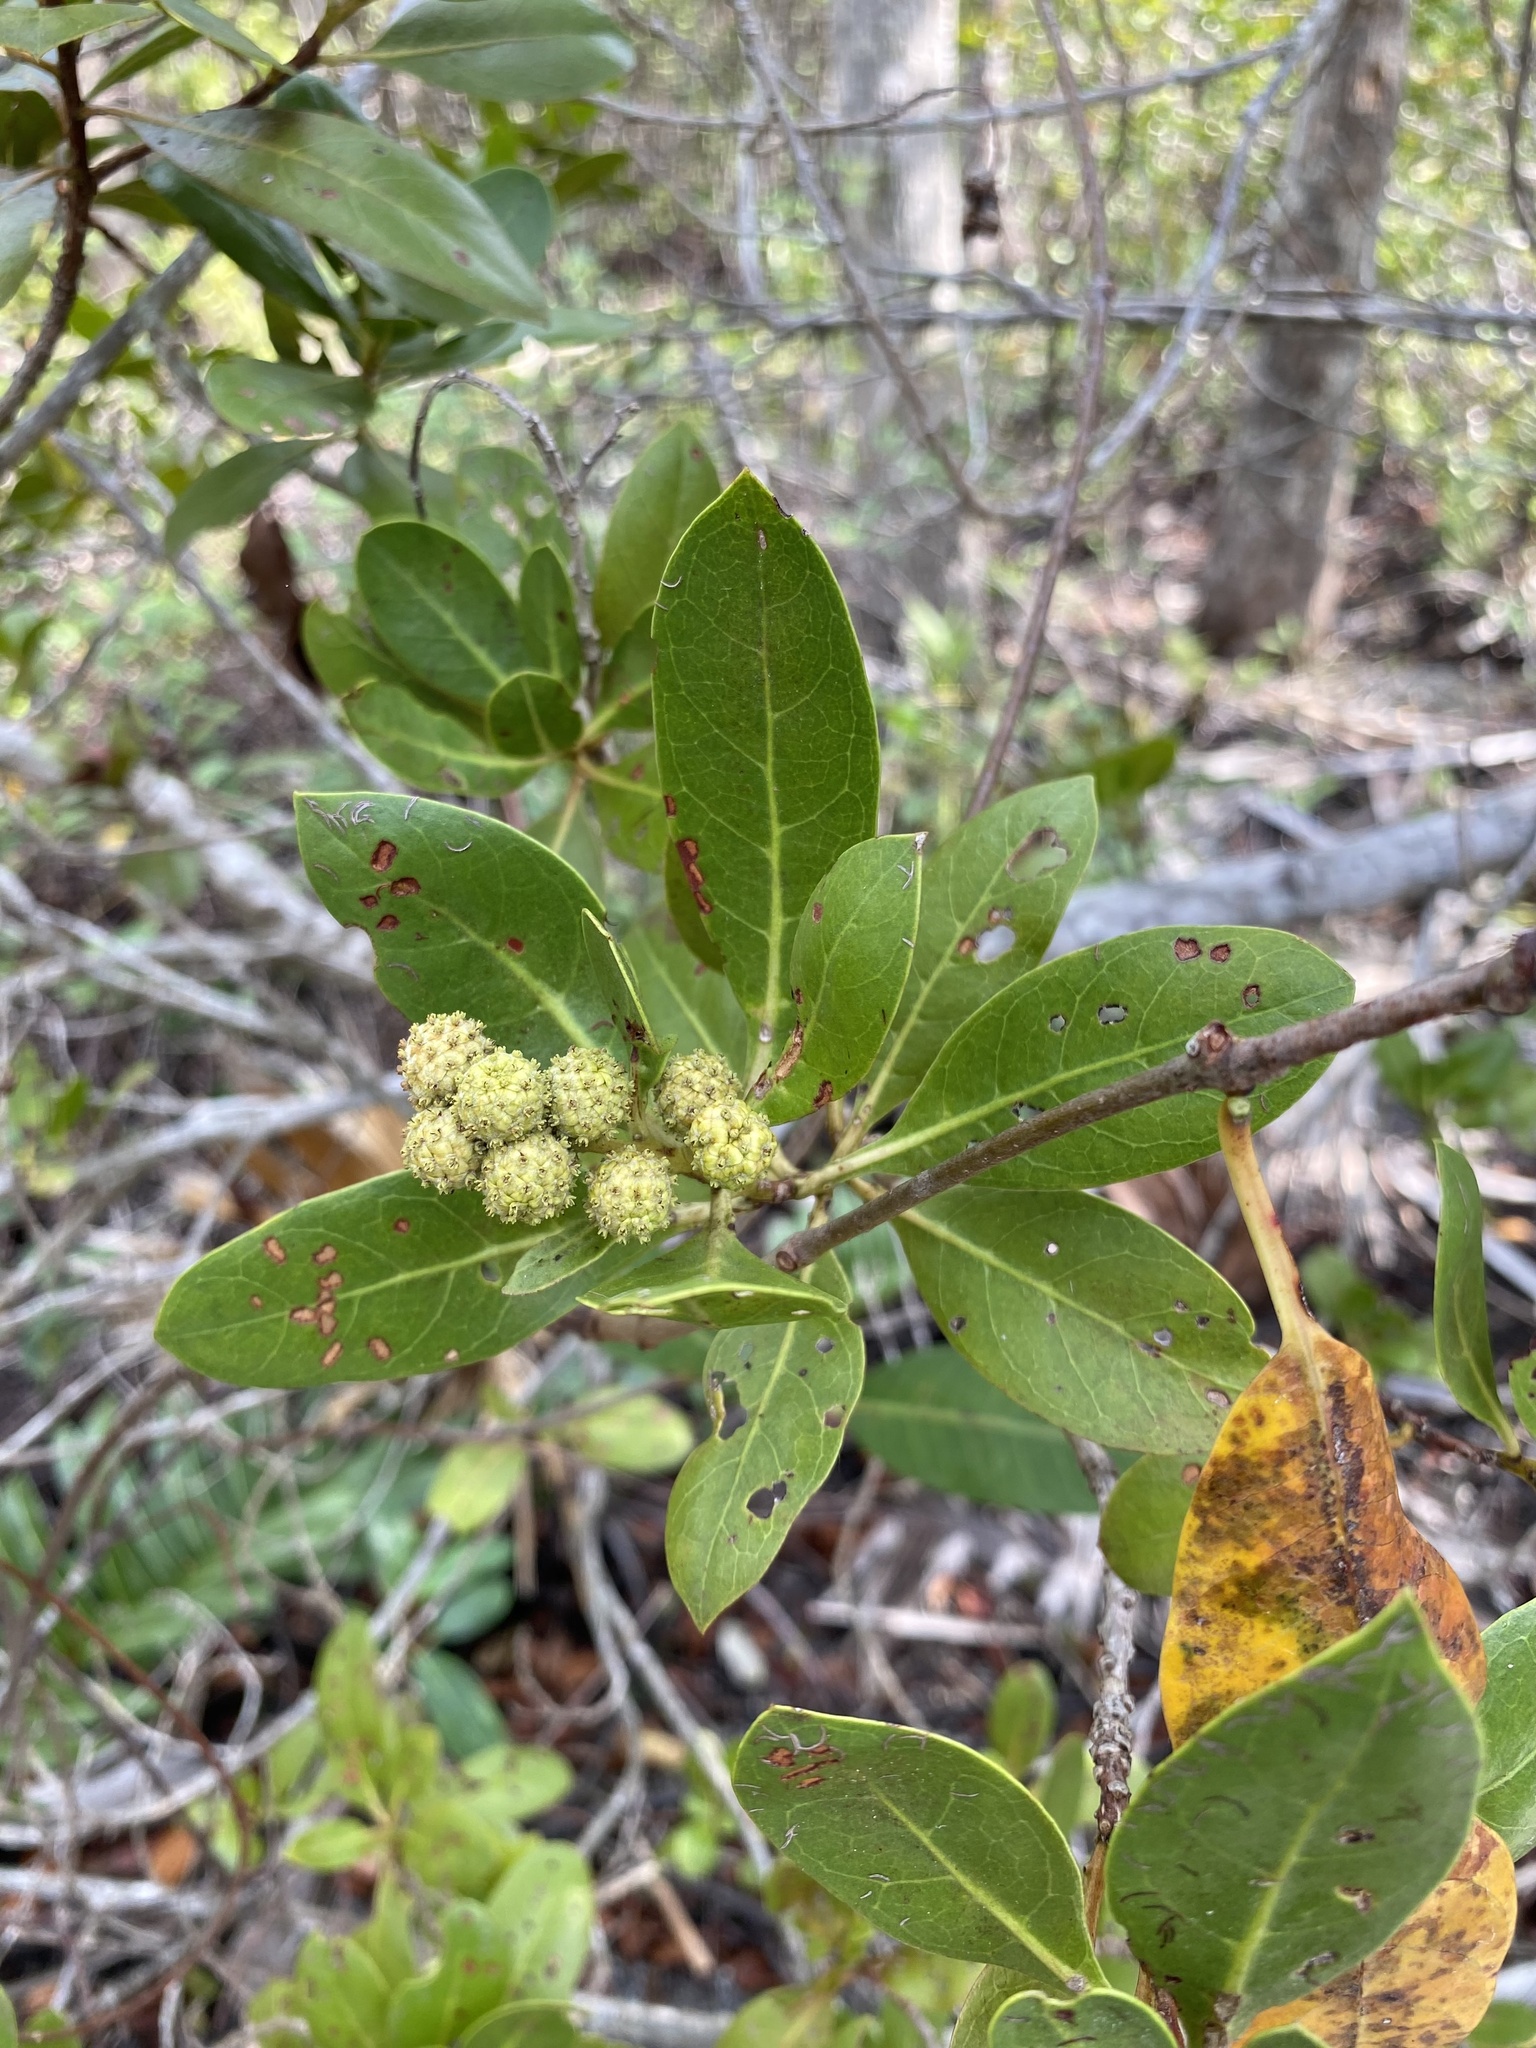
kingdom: Plantae
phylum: Tracheophyta
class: Magnoliopsida
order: Myrtales
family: Combretaceae
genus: Conocarpus
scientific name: Conocarpus erectus
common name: Button mangrove
